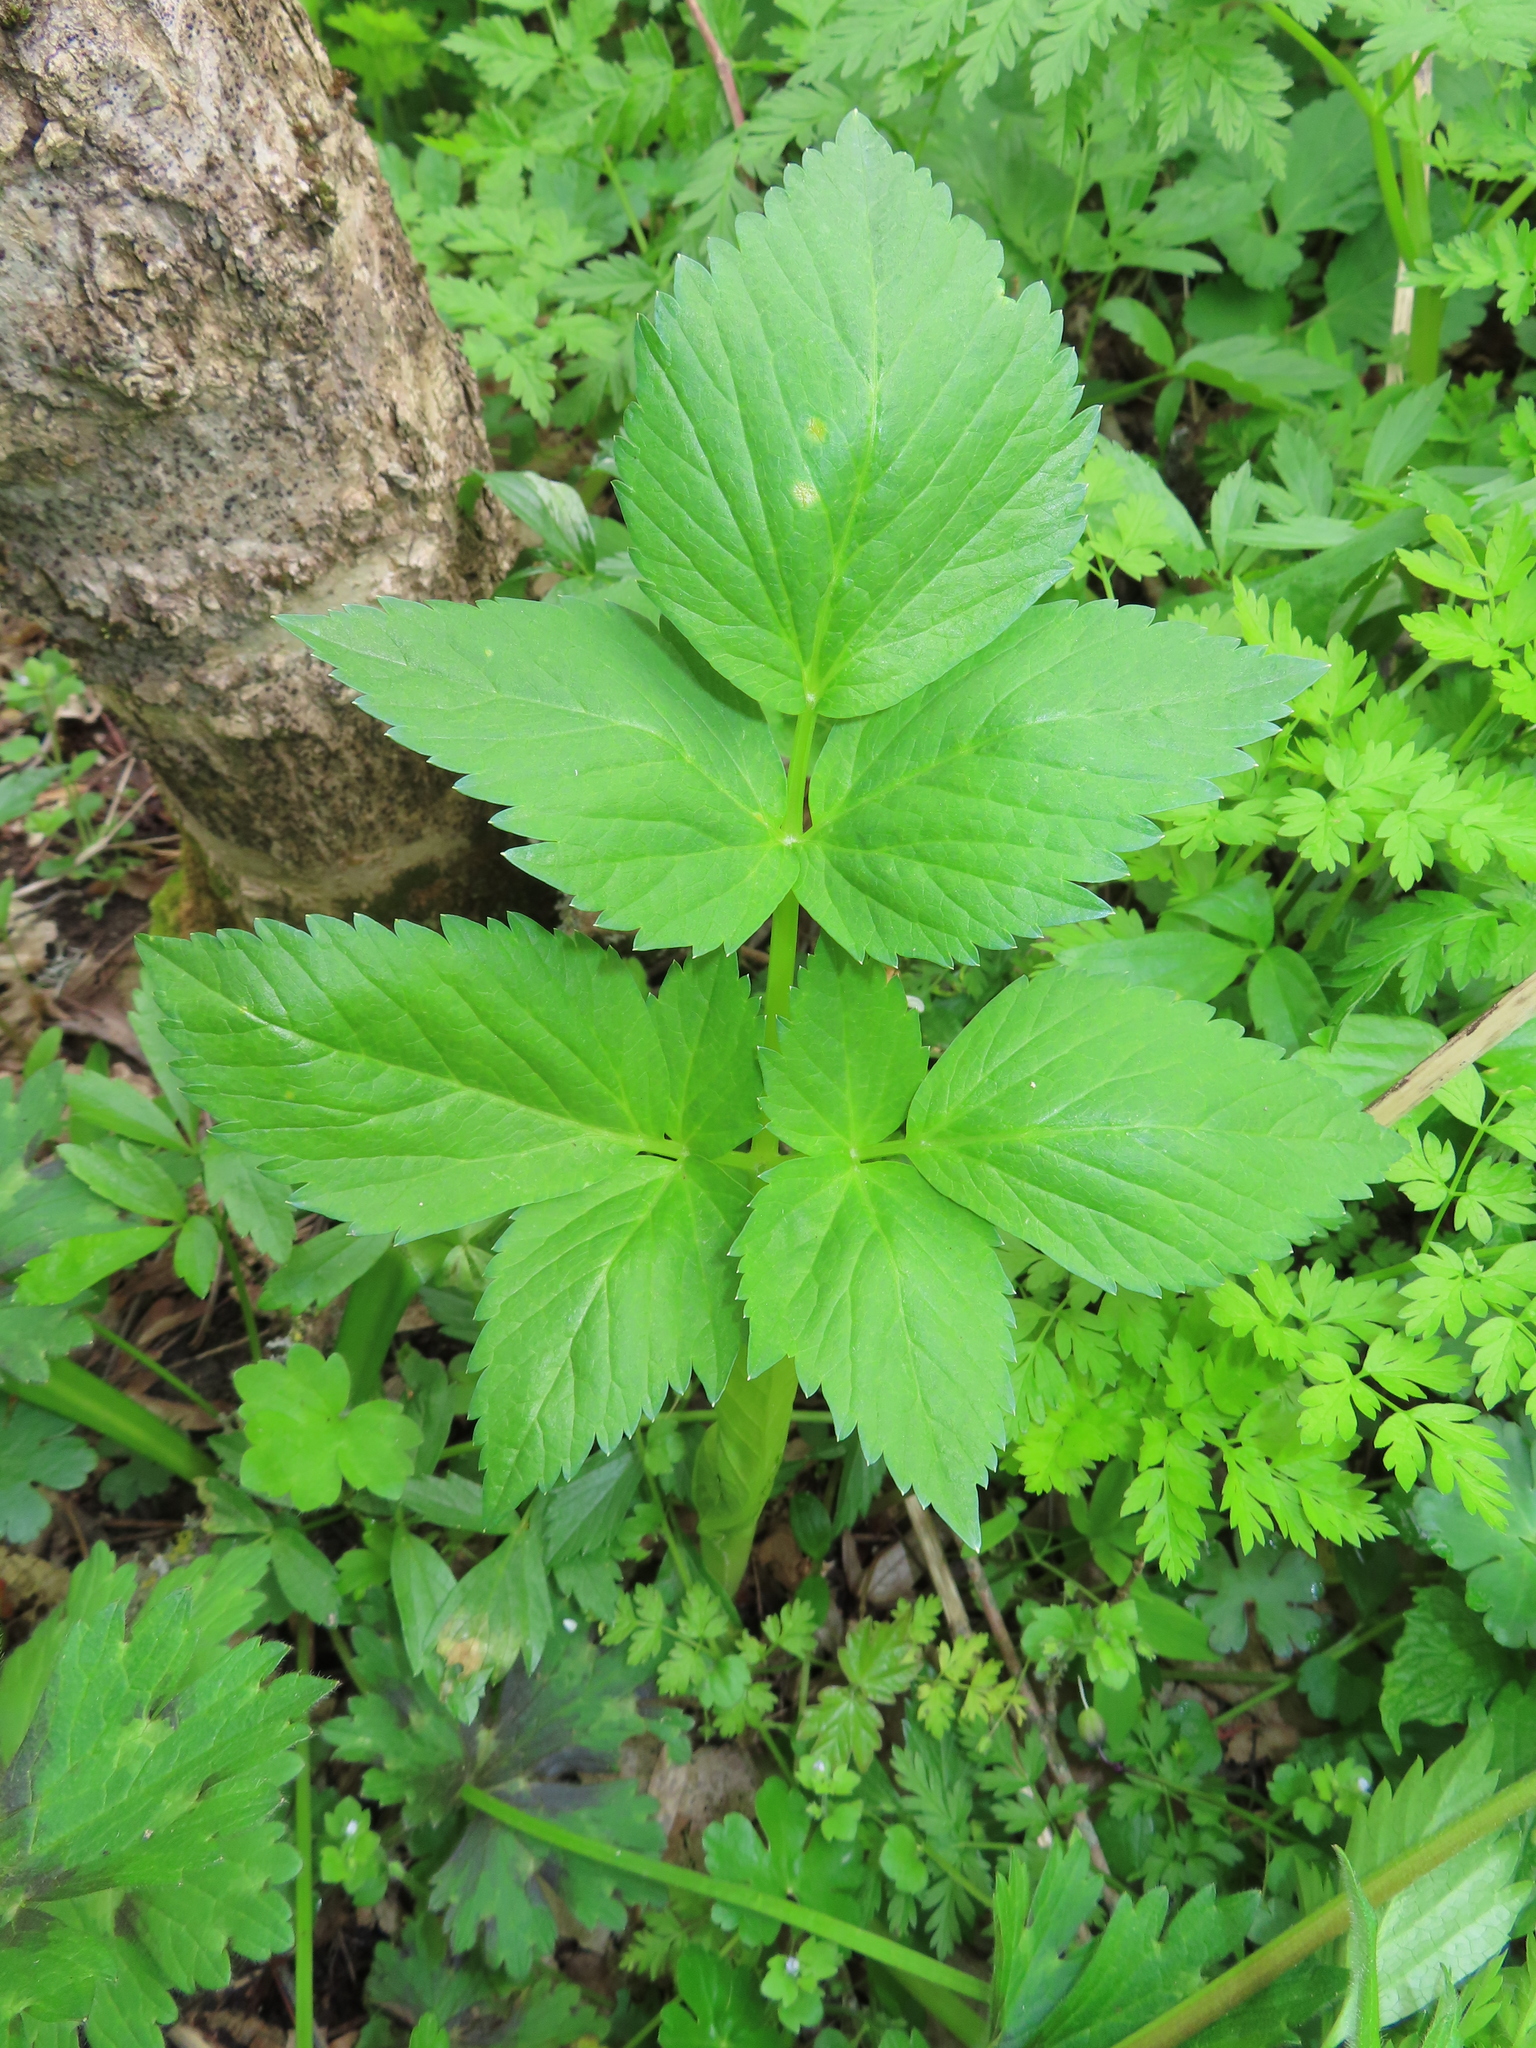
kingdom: Plantae
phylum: Tracheophyta
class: Magnoliopsida
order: Apiales
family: Apiaceae
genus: Aegopodium
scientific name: Aegopodium podagraria
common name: Ground-elder
